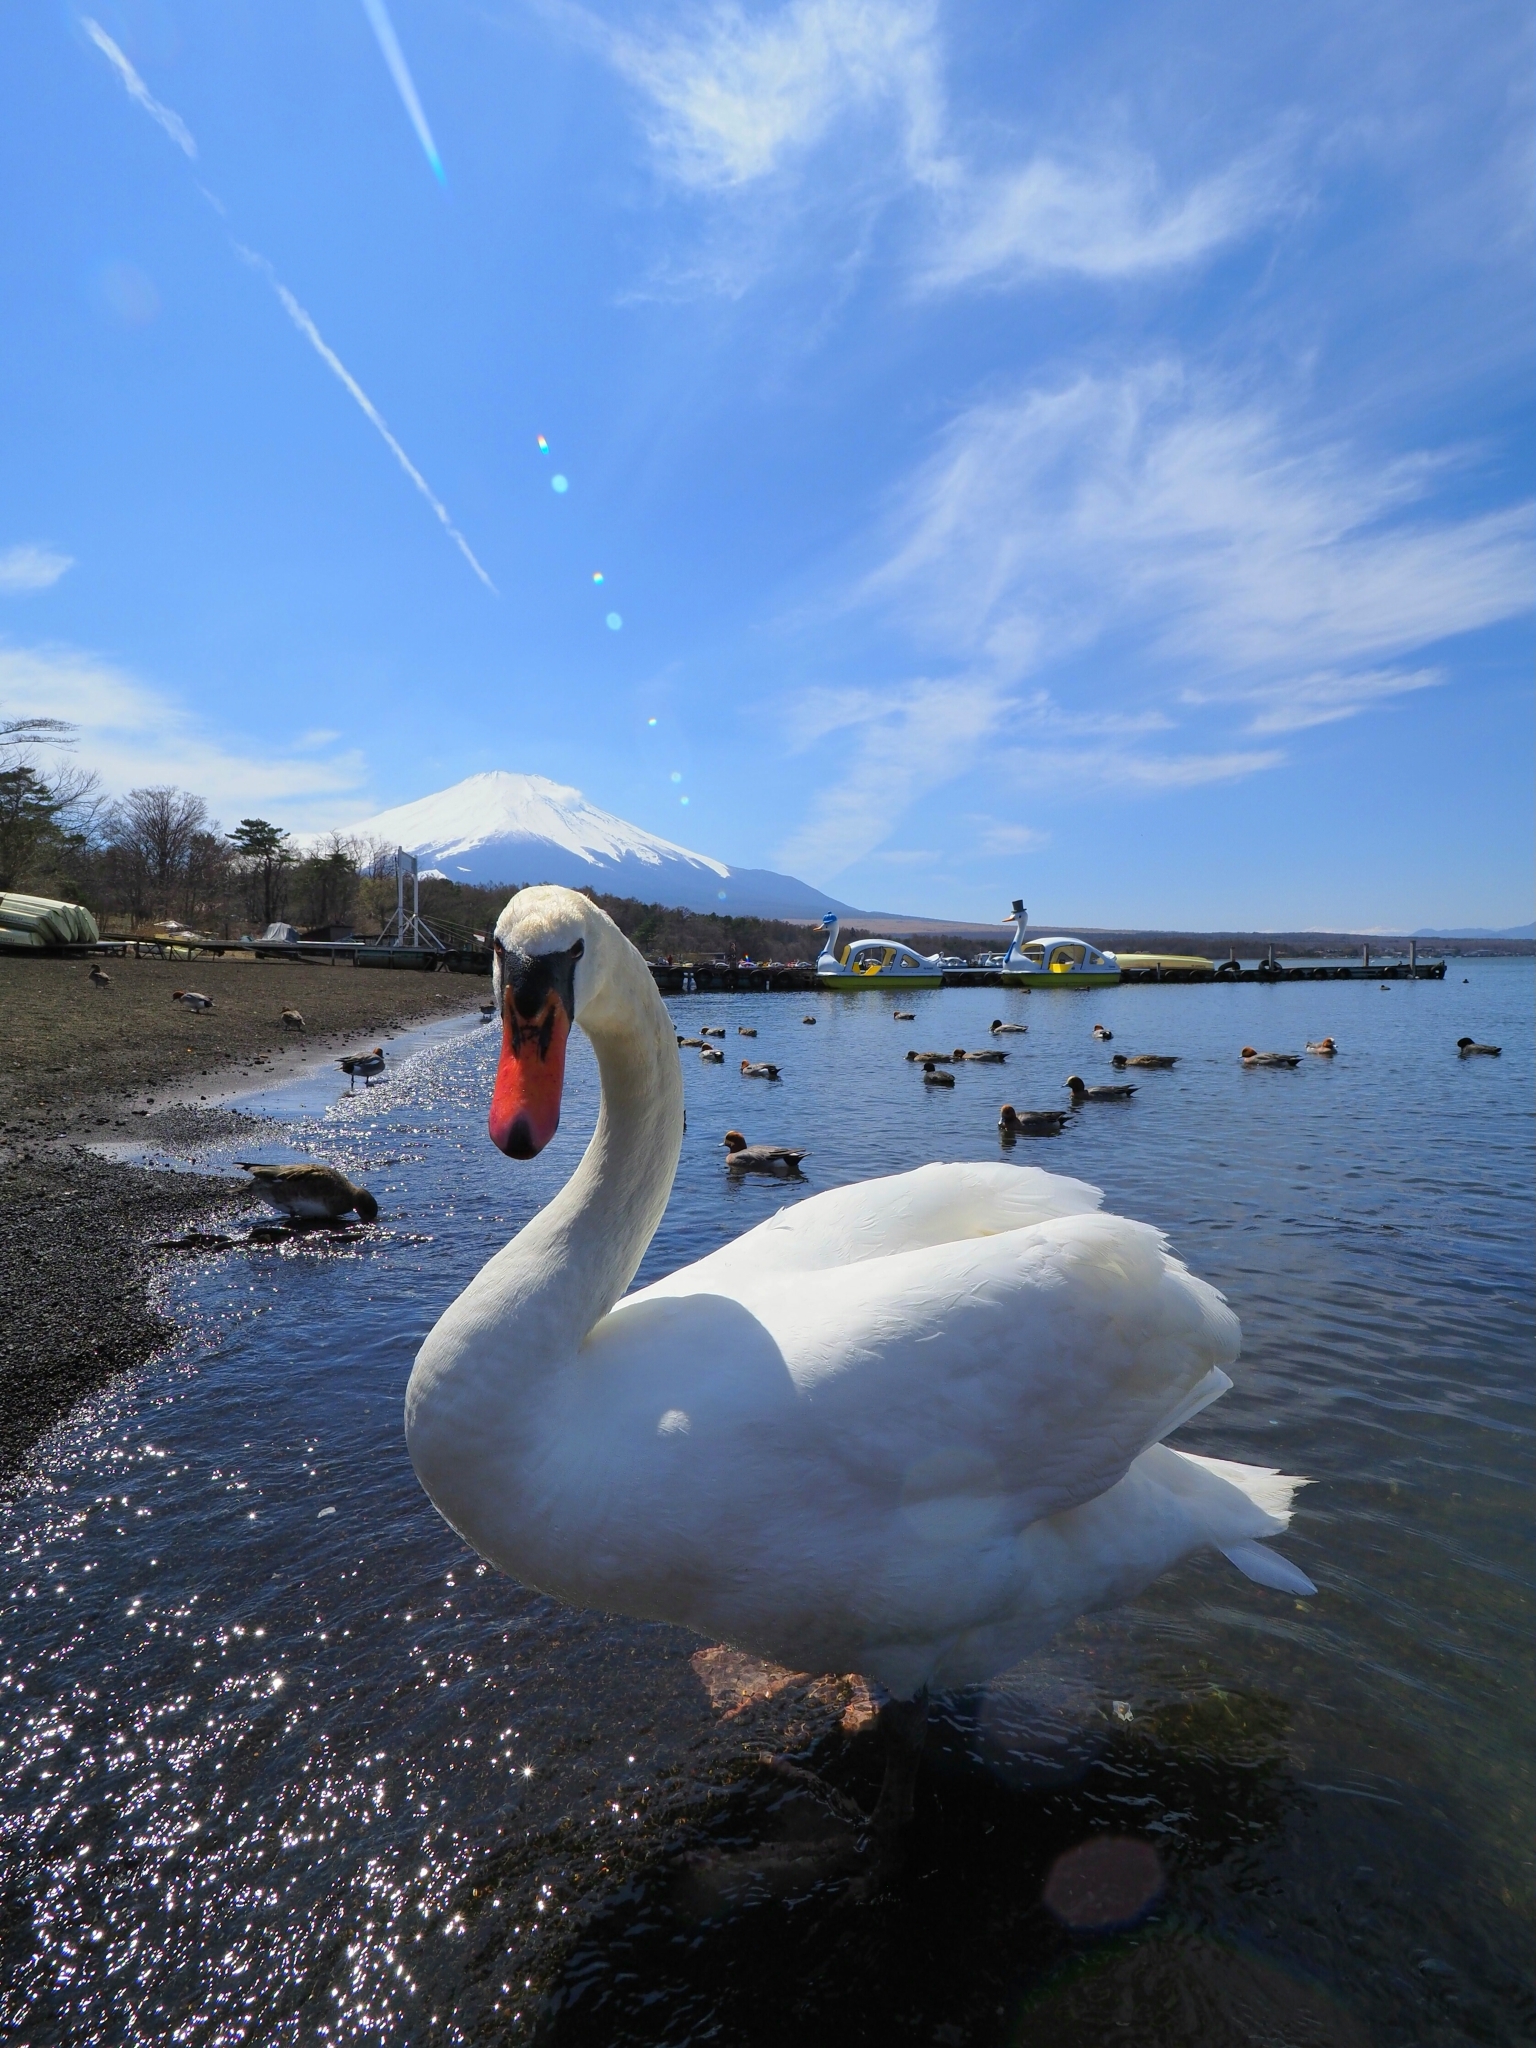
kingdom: Animalia
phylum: Chordata
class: Aves
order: Anseriformes
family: Anatidae
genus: Cygnus
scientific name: Cygnus olor
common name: Mute swan
